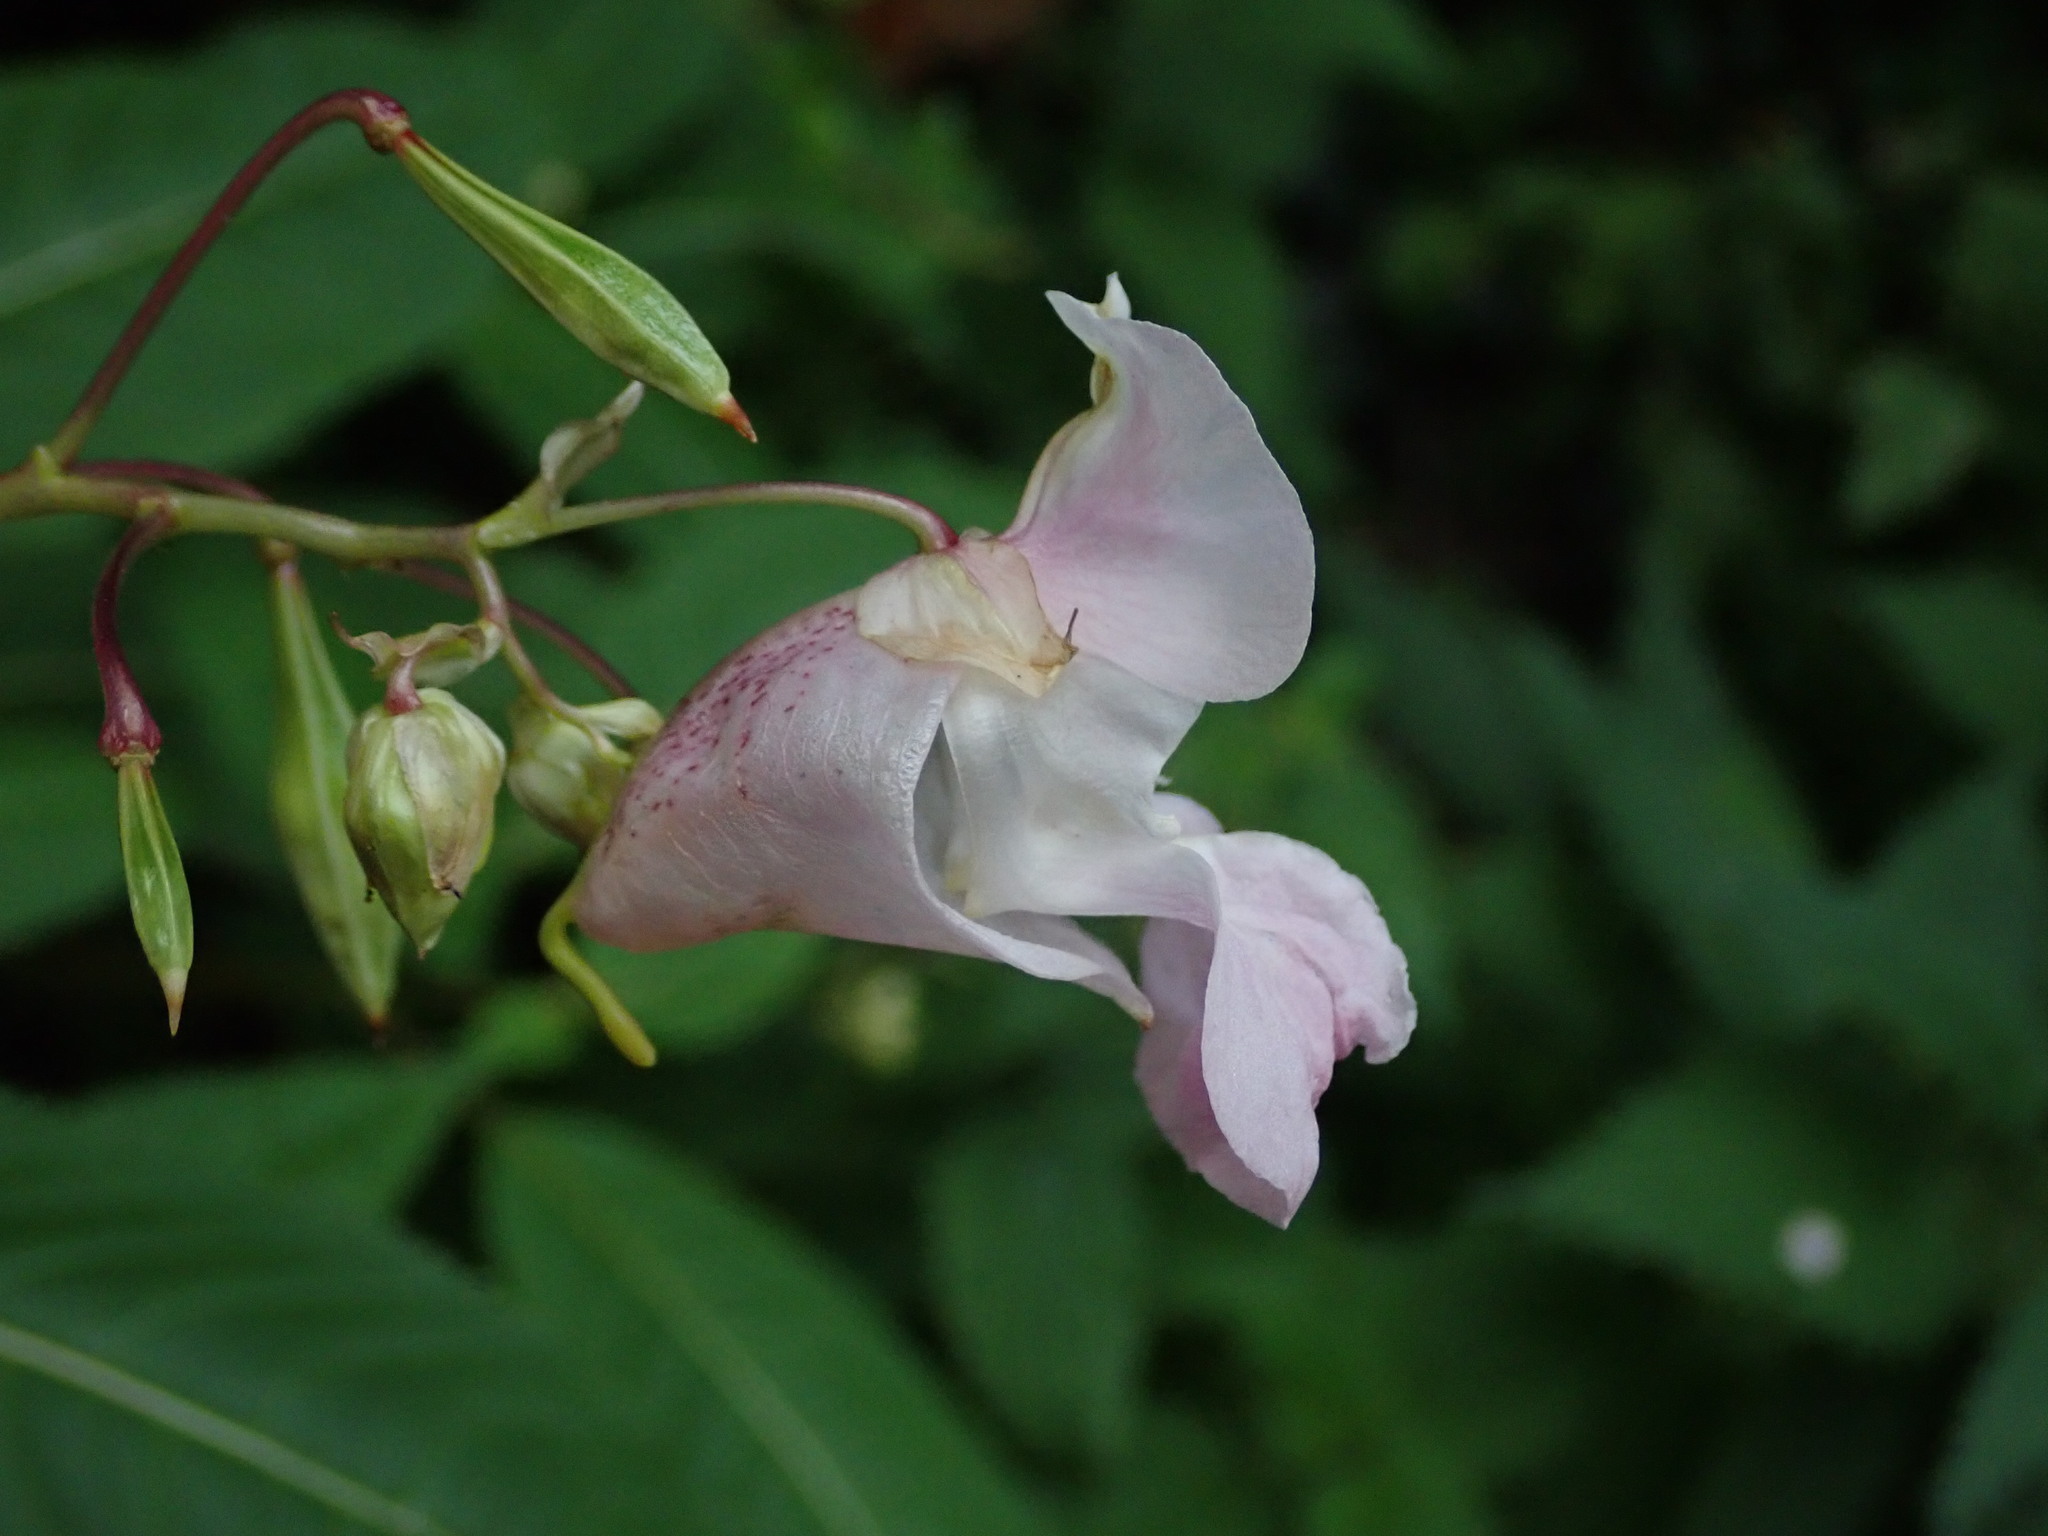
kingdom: Plantae
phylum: Tracheophyta
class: Magnoliopsida
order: Ericales
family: Balsaminaceae
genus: Impatiens
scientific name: Impatiens glandulifera
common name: Himalayan balsam
